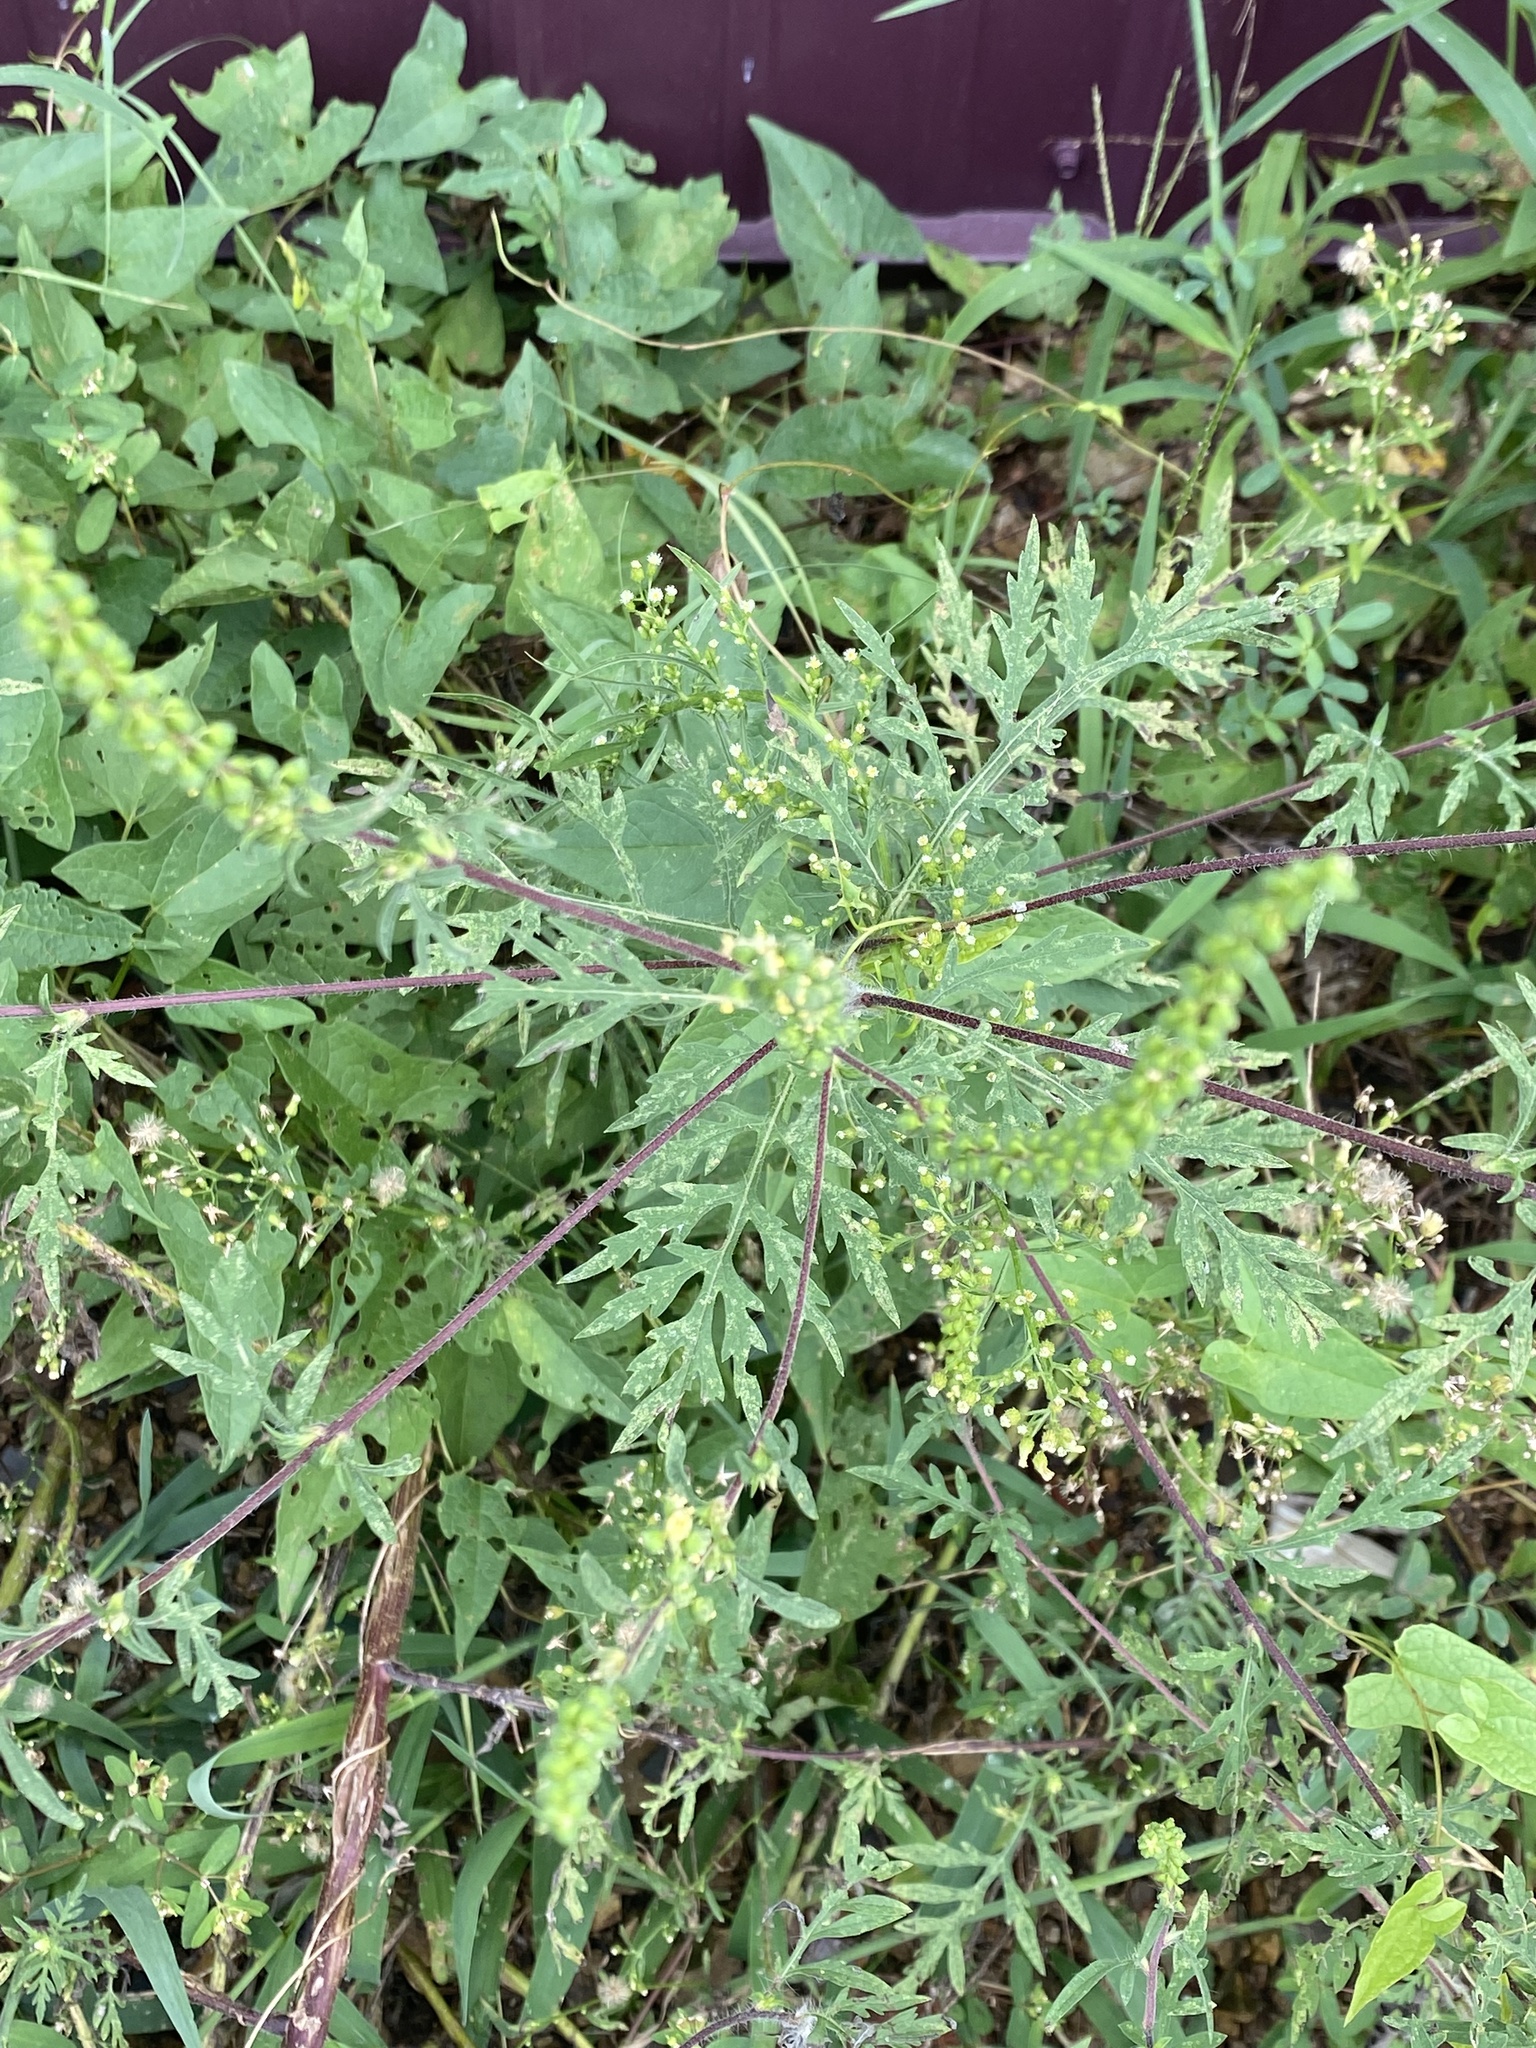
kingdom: Plantae
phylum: Tracheophyta
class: Magnoliopsida
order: Asterales
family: Asteraceae
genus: Ambrosia
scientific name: Ambrosia artemisiifolia
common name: Annual ragweed
